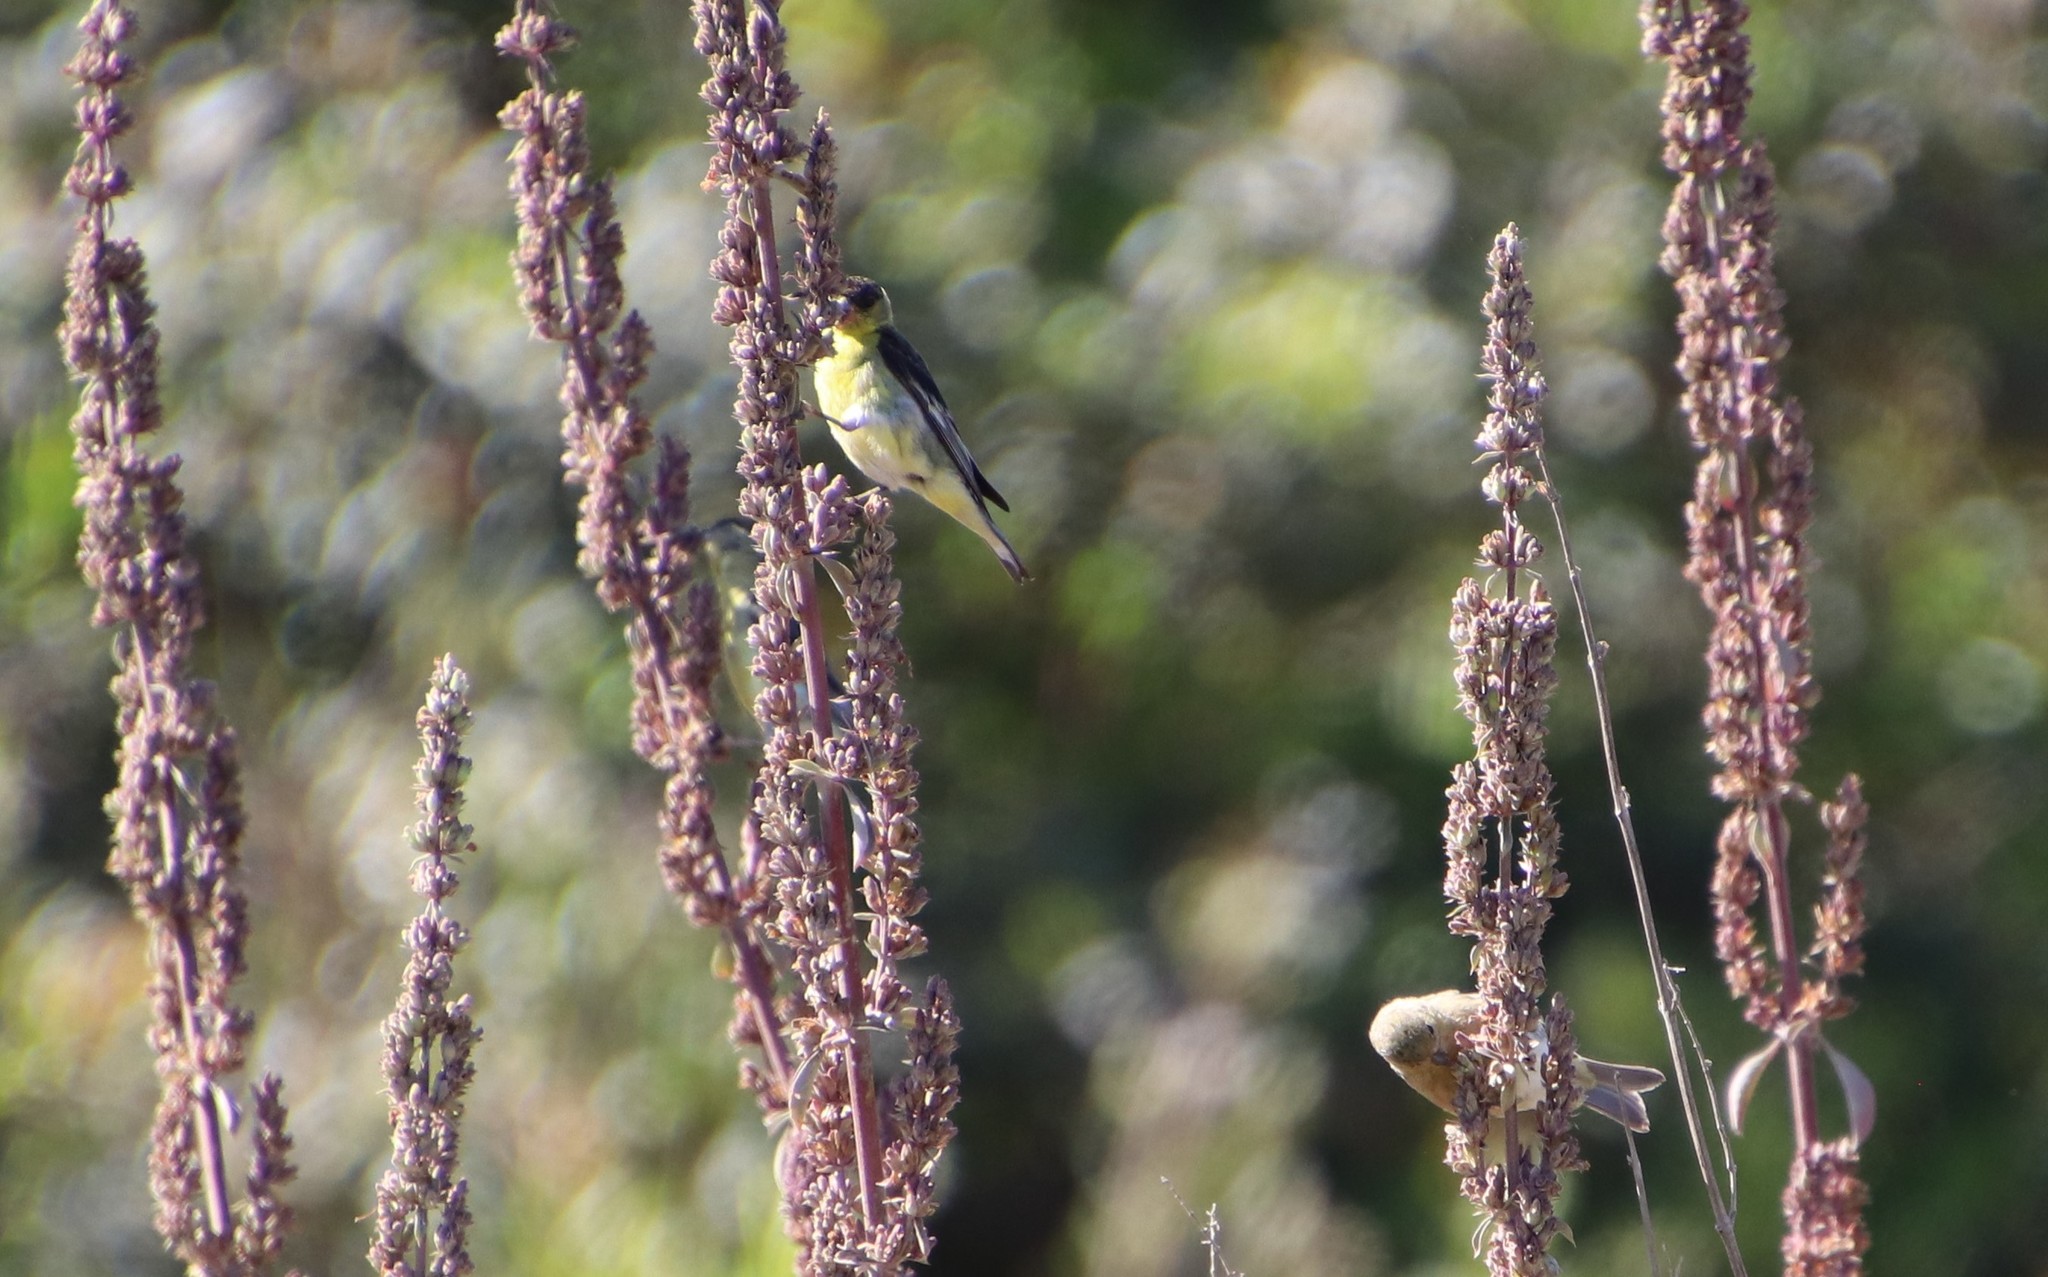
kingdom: Animalia
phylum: Chordata
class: Aves
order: Passeriformes
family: Fringillidae
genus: Spinus
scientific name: Spinus psaltria
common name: Lesser goldfinch
